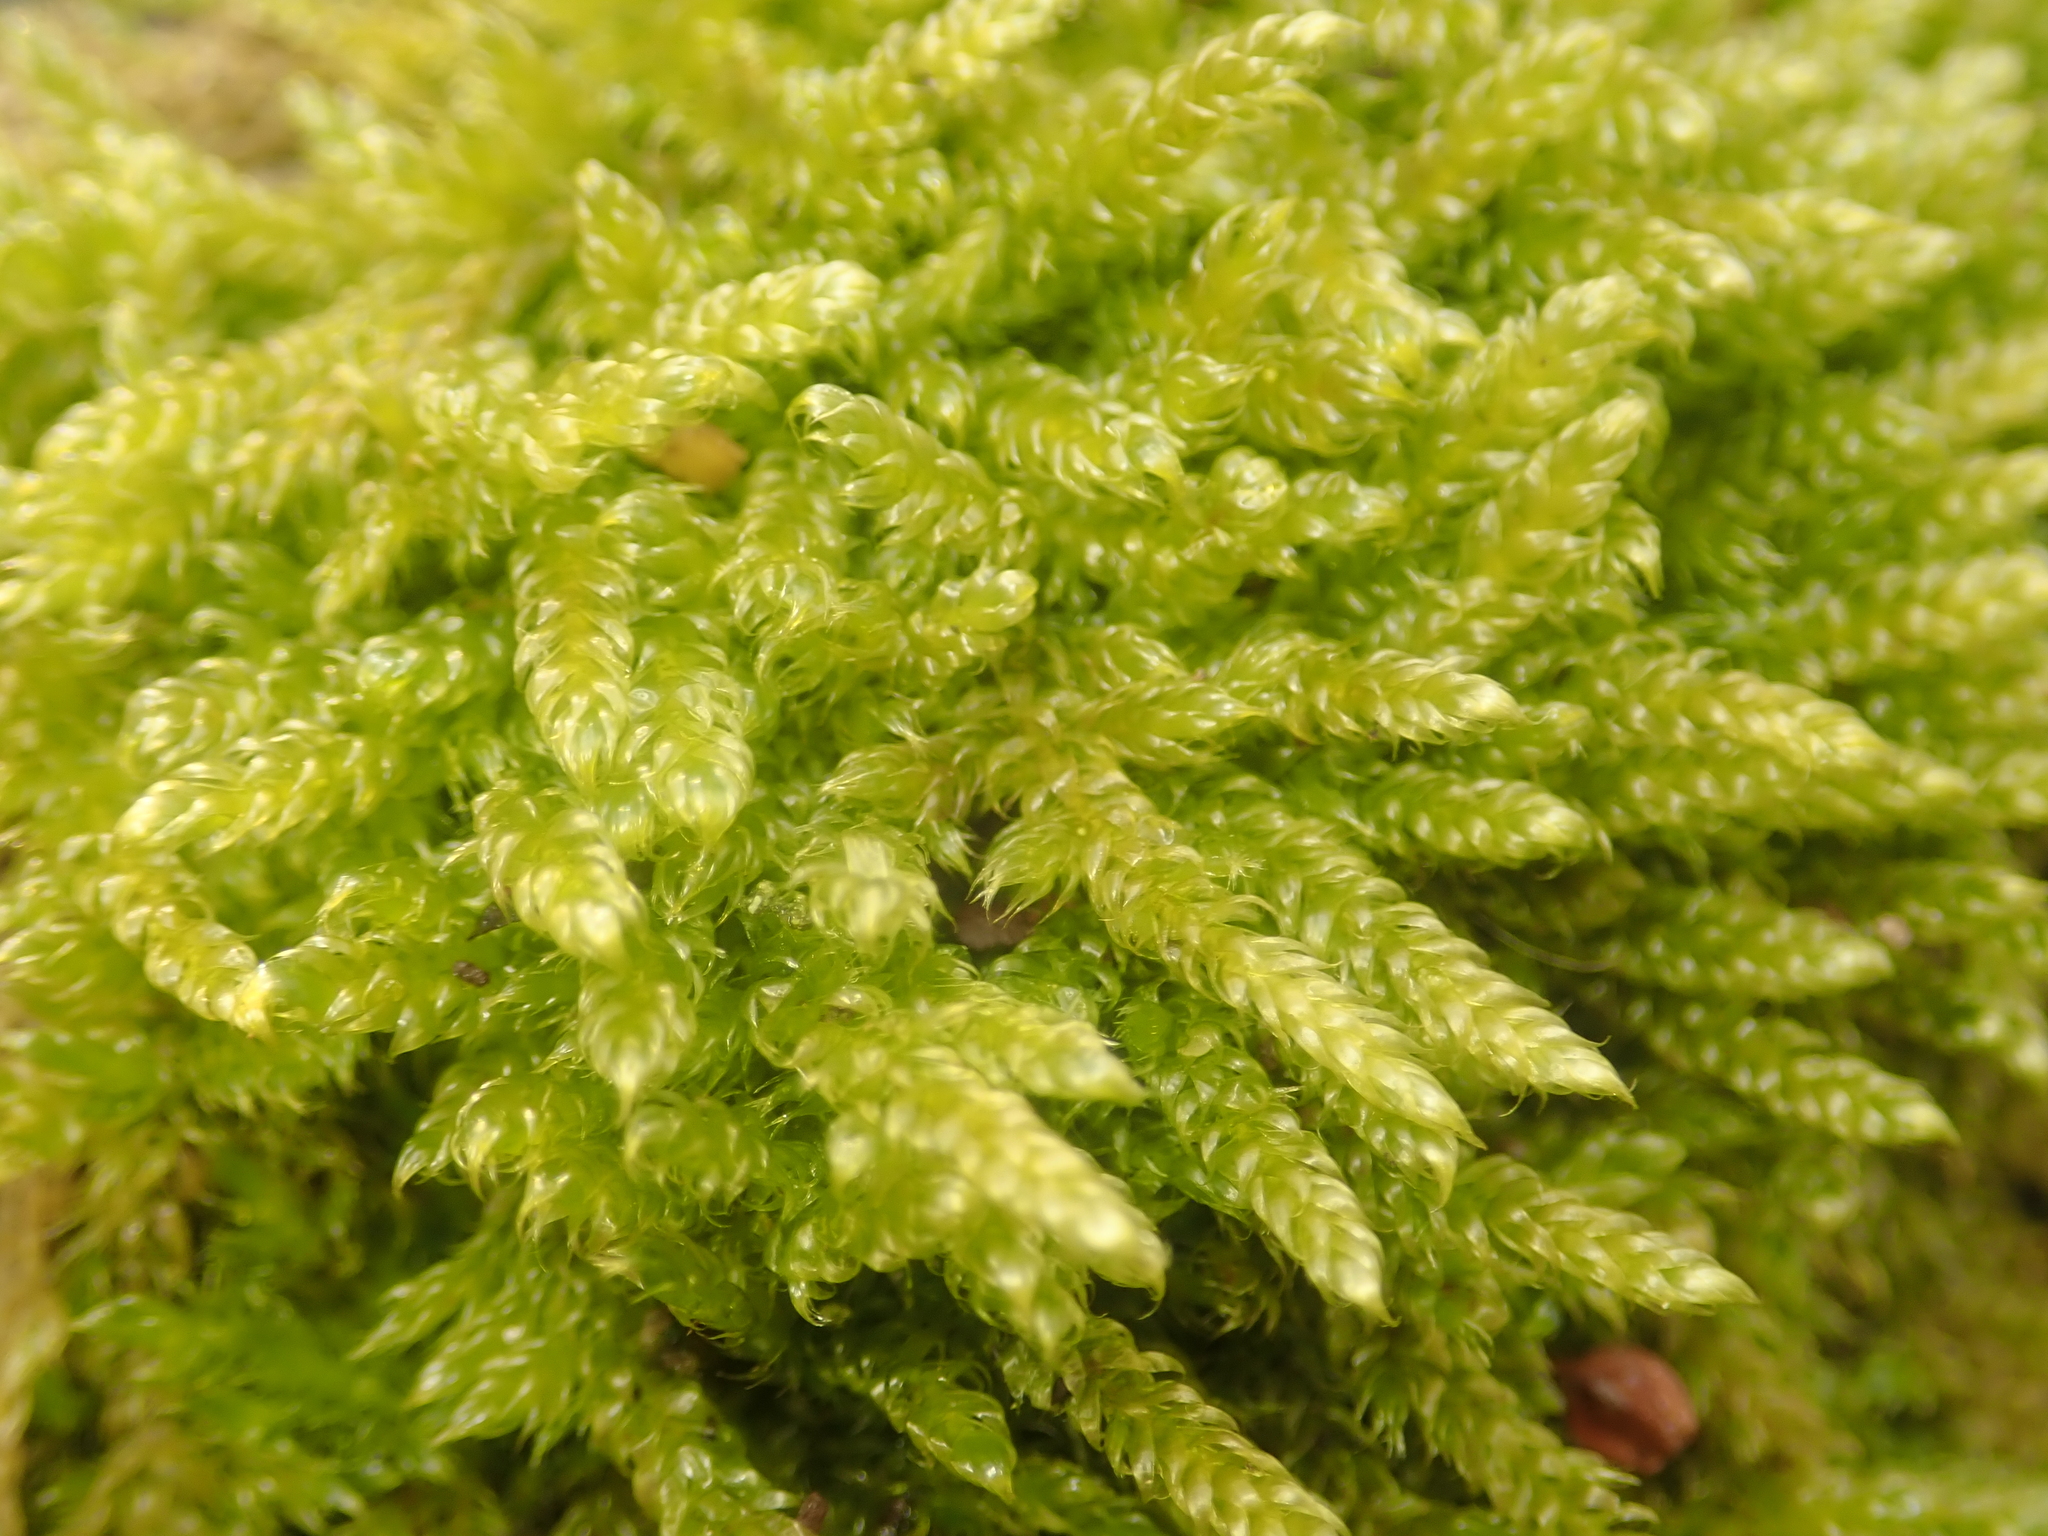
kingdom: Plantae
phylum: Bryophyta
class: Bryopsida
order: Hypnales
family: Hypnaceae
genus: Hypnum
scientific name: Hypnum cupressiforme
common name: Cypress-leaved plait-moss
